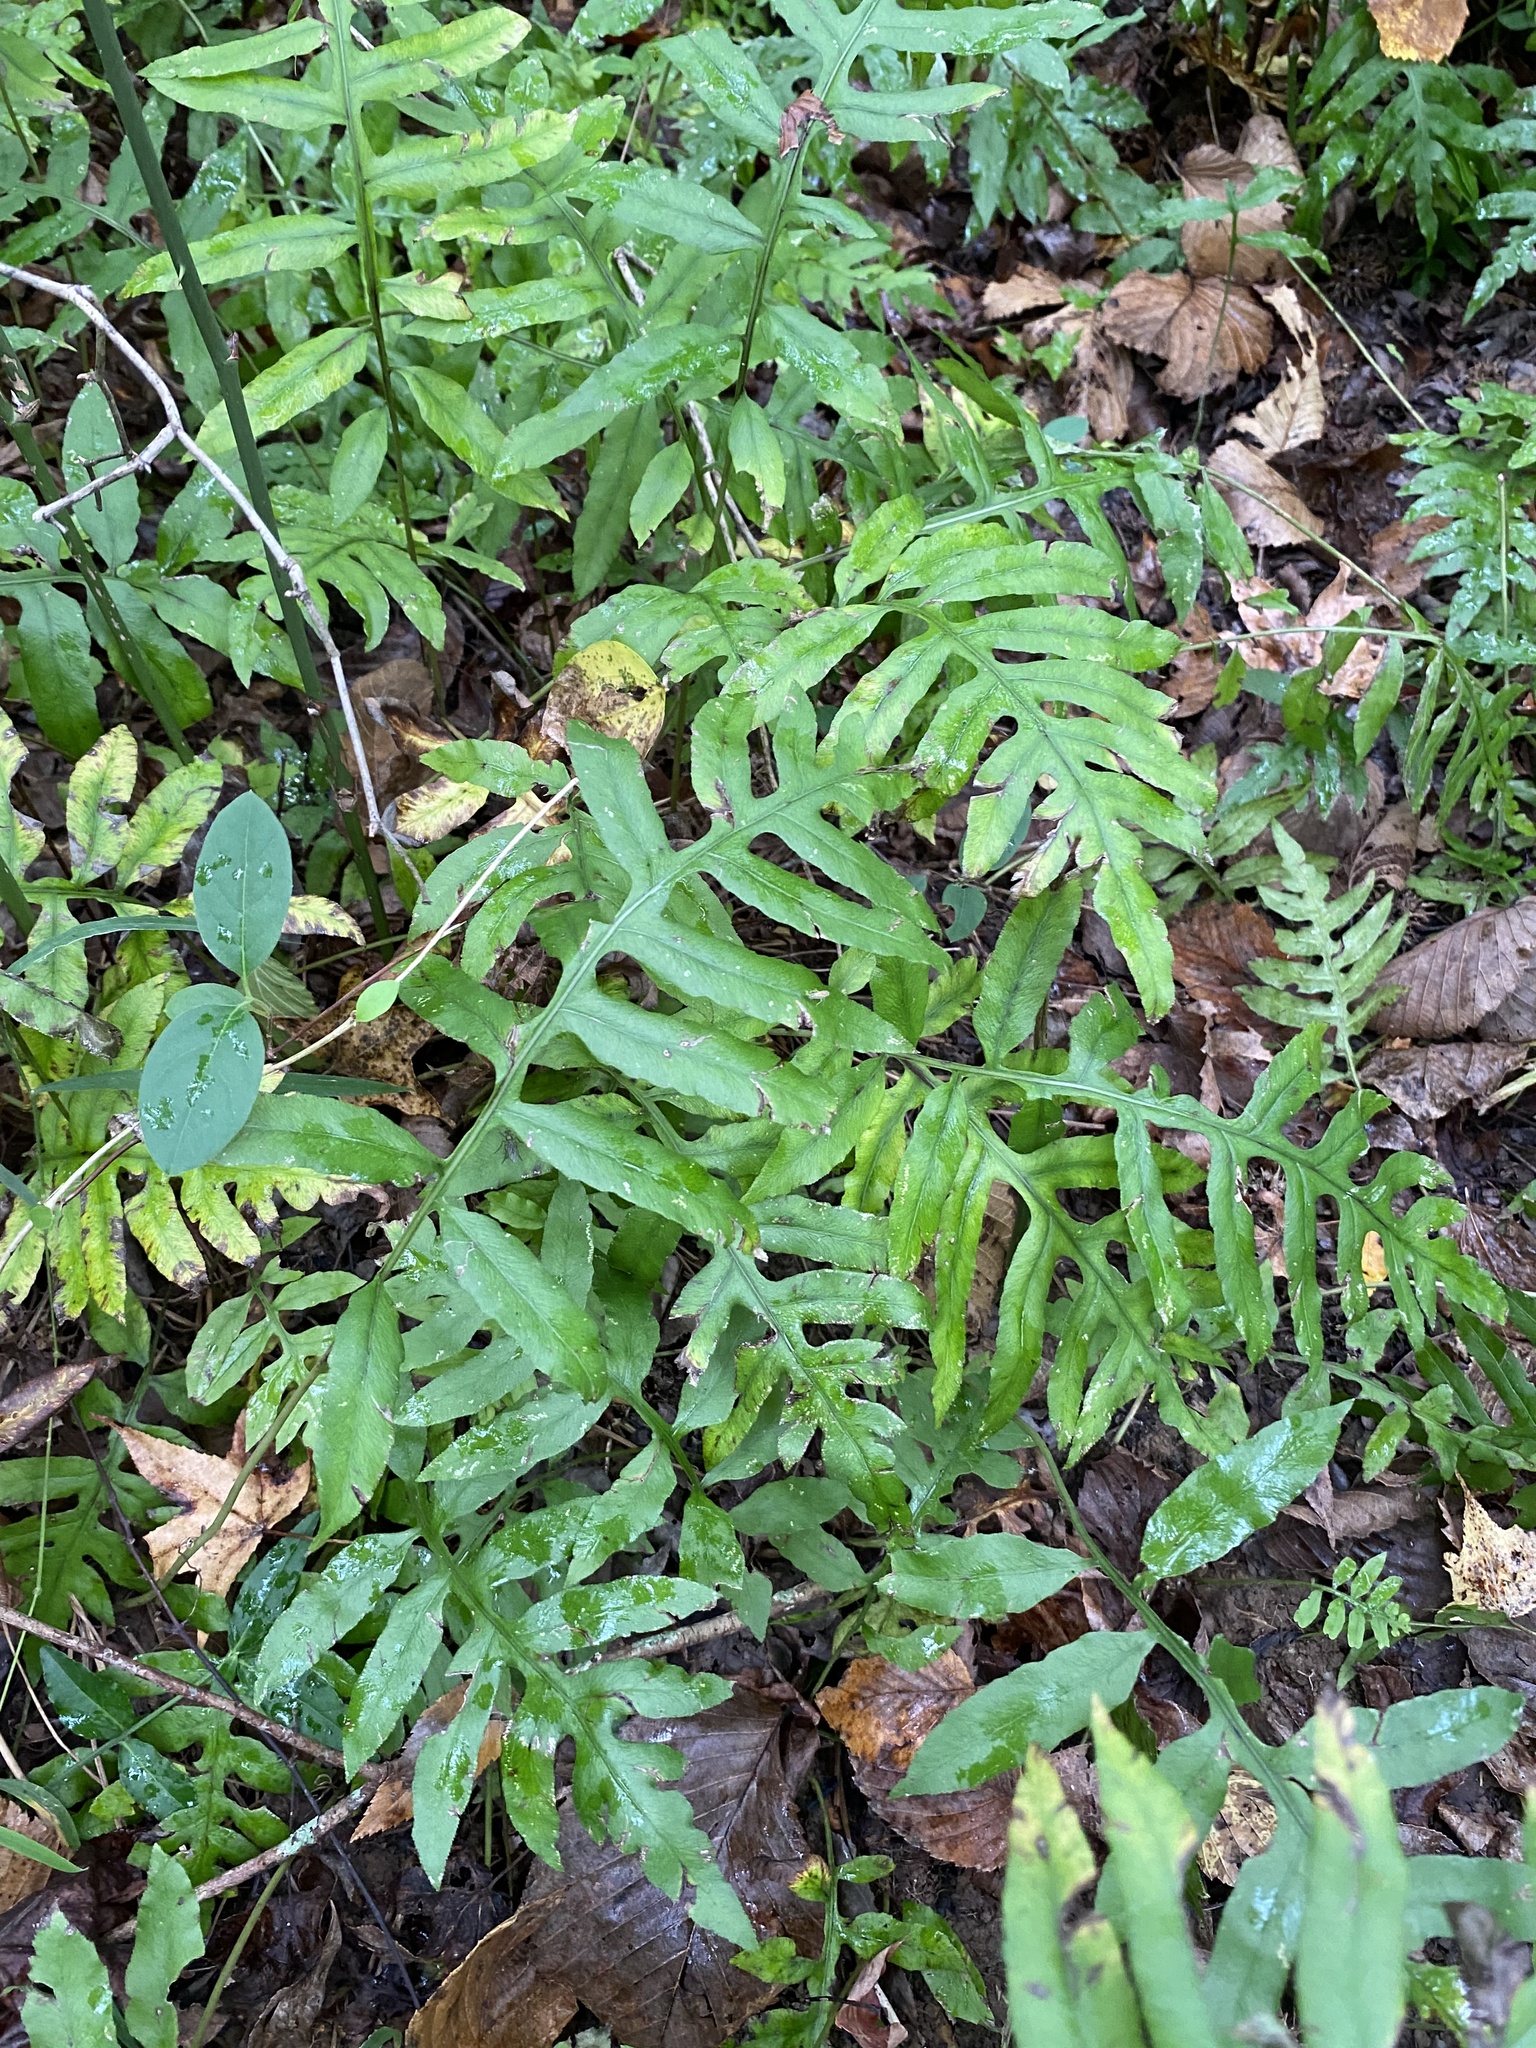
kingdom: Plantae
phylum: Tracheophyta
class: Polypodiopsida
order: Polypodiales
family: Blechnaceae
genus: Lorinseria
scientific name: Lorinseria areolata
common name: Dwarf chain fern
